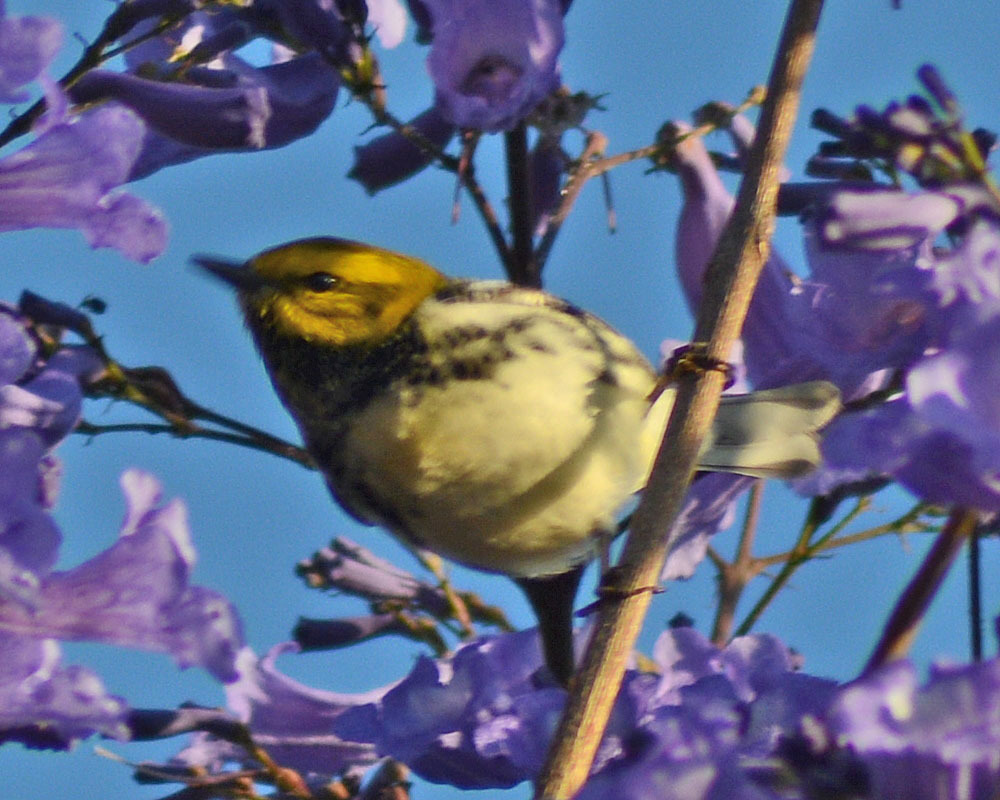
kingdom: Animalia
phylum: Chordata
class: Aves
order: Passeriformes
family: Parulidae
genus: Setophaga
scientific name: Setophaga virens
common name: Black-throated green warbler
